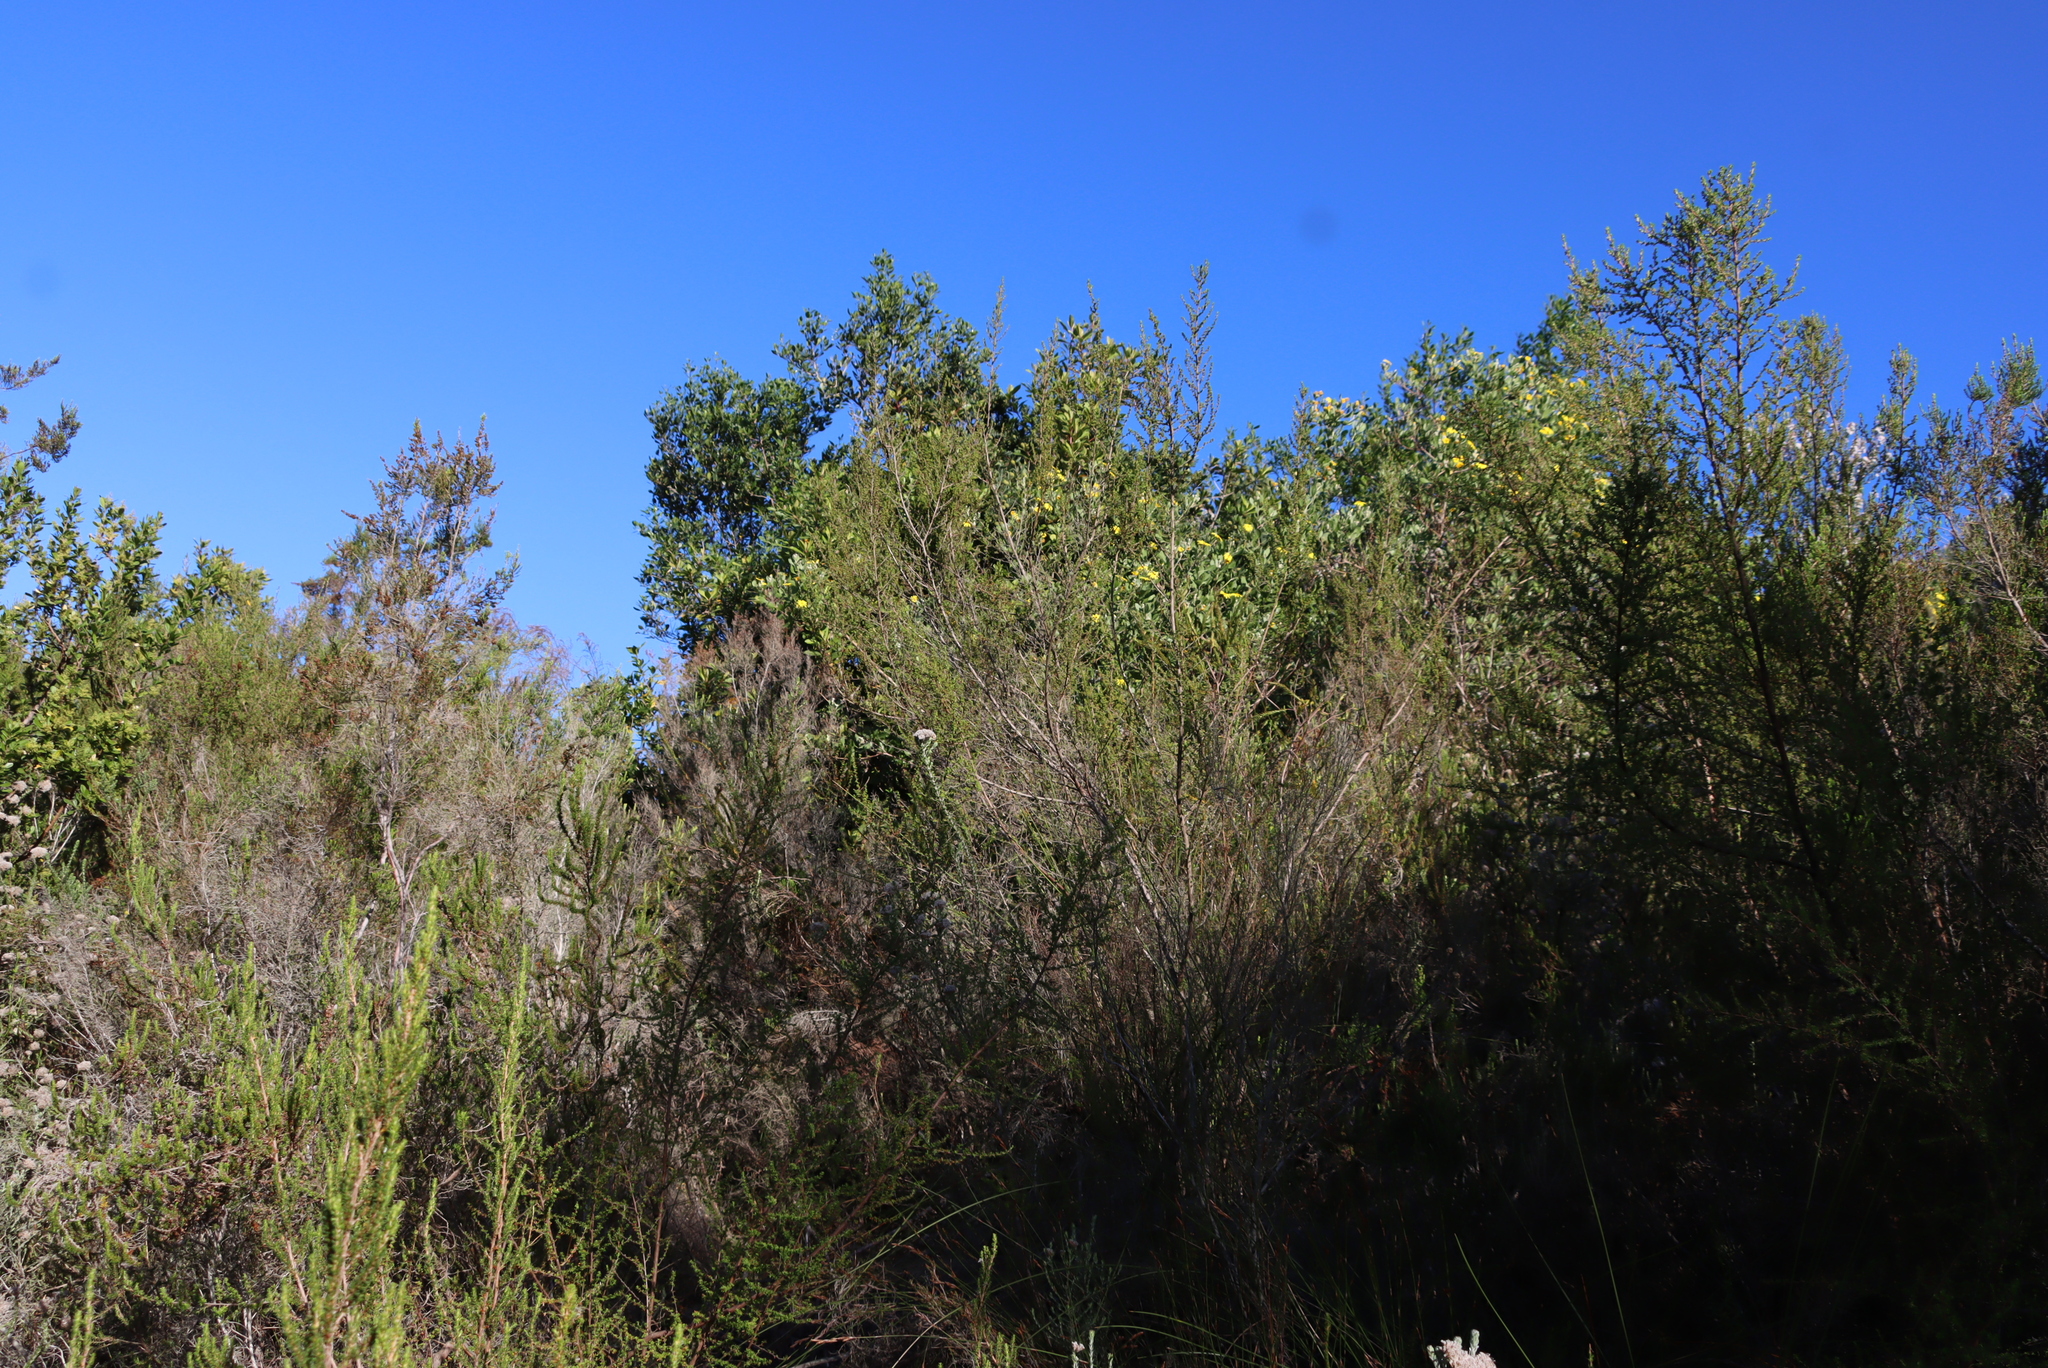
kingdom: Plantae
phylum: Tracheophyta
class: Magnoliopsida
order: Rosales
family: Rosaceae
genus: Cliffortia
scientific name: Cliffortia serpyllifolia
